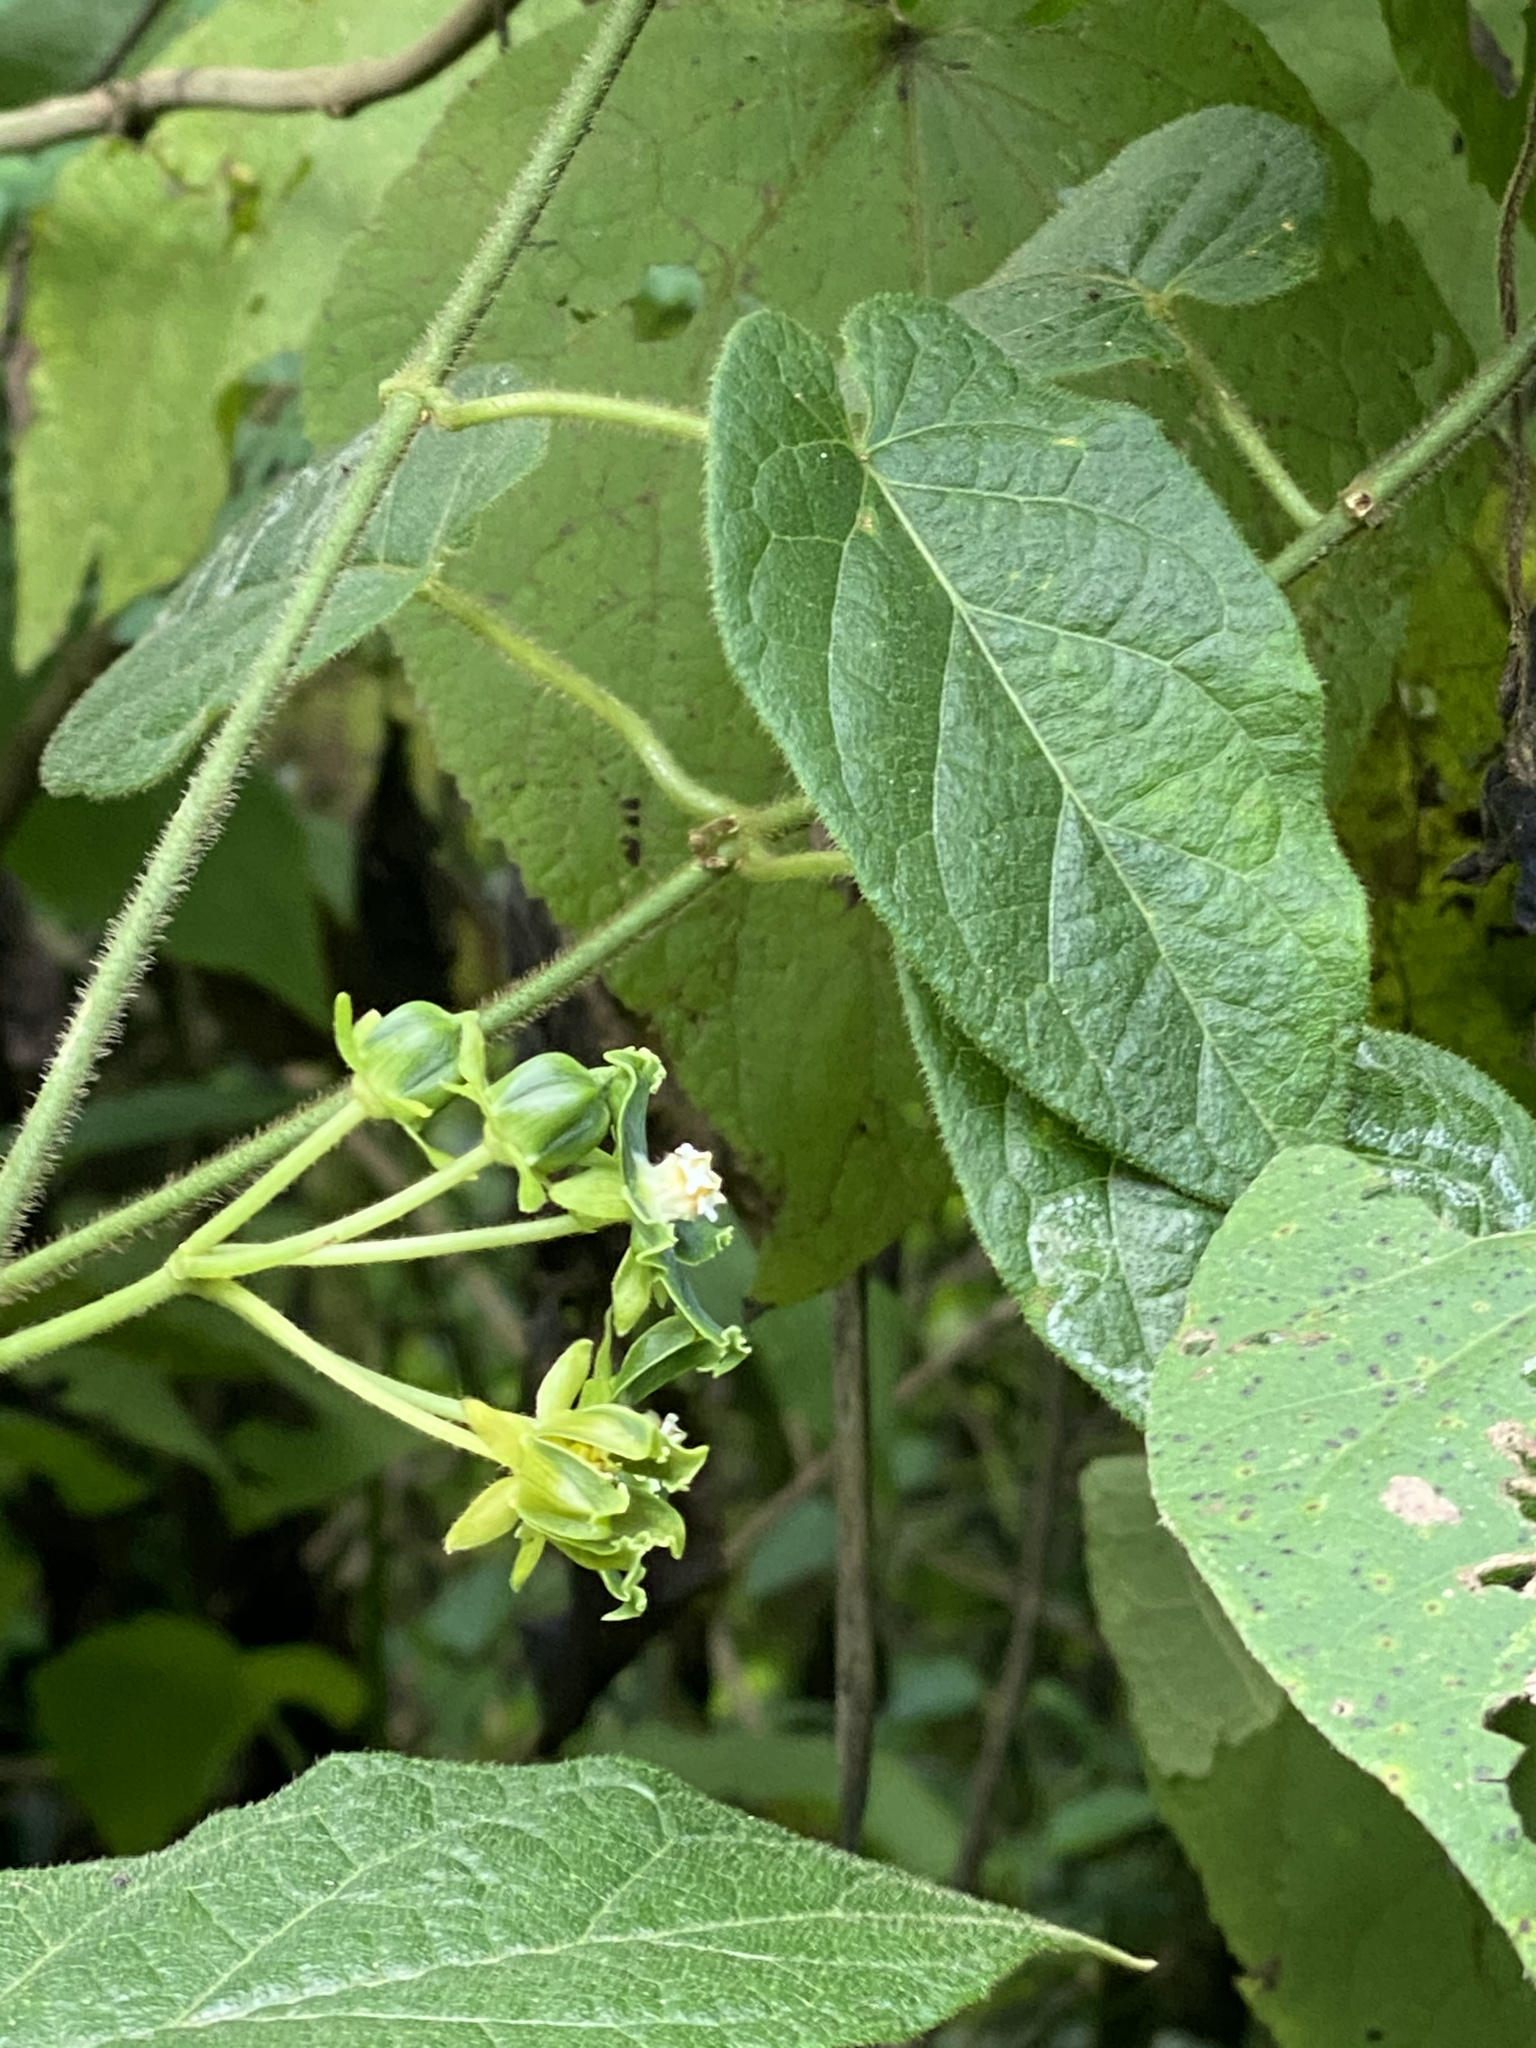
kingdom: Plantae
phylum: Tracheophyta
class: Magnoliopsida
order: Gentianales
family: Apocynaceae
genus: Gonolobus
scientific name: Gonolobus stenosepalus
